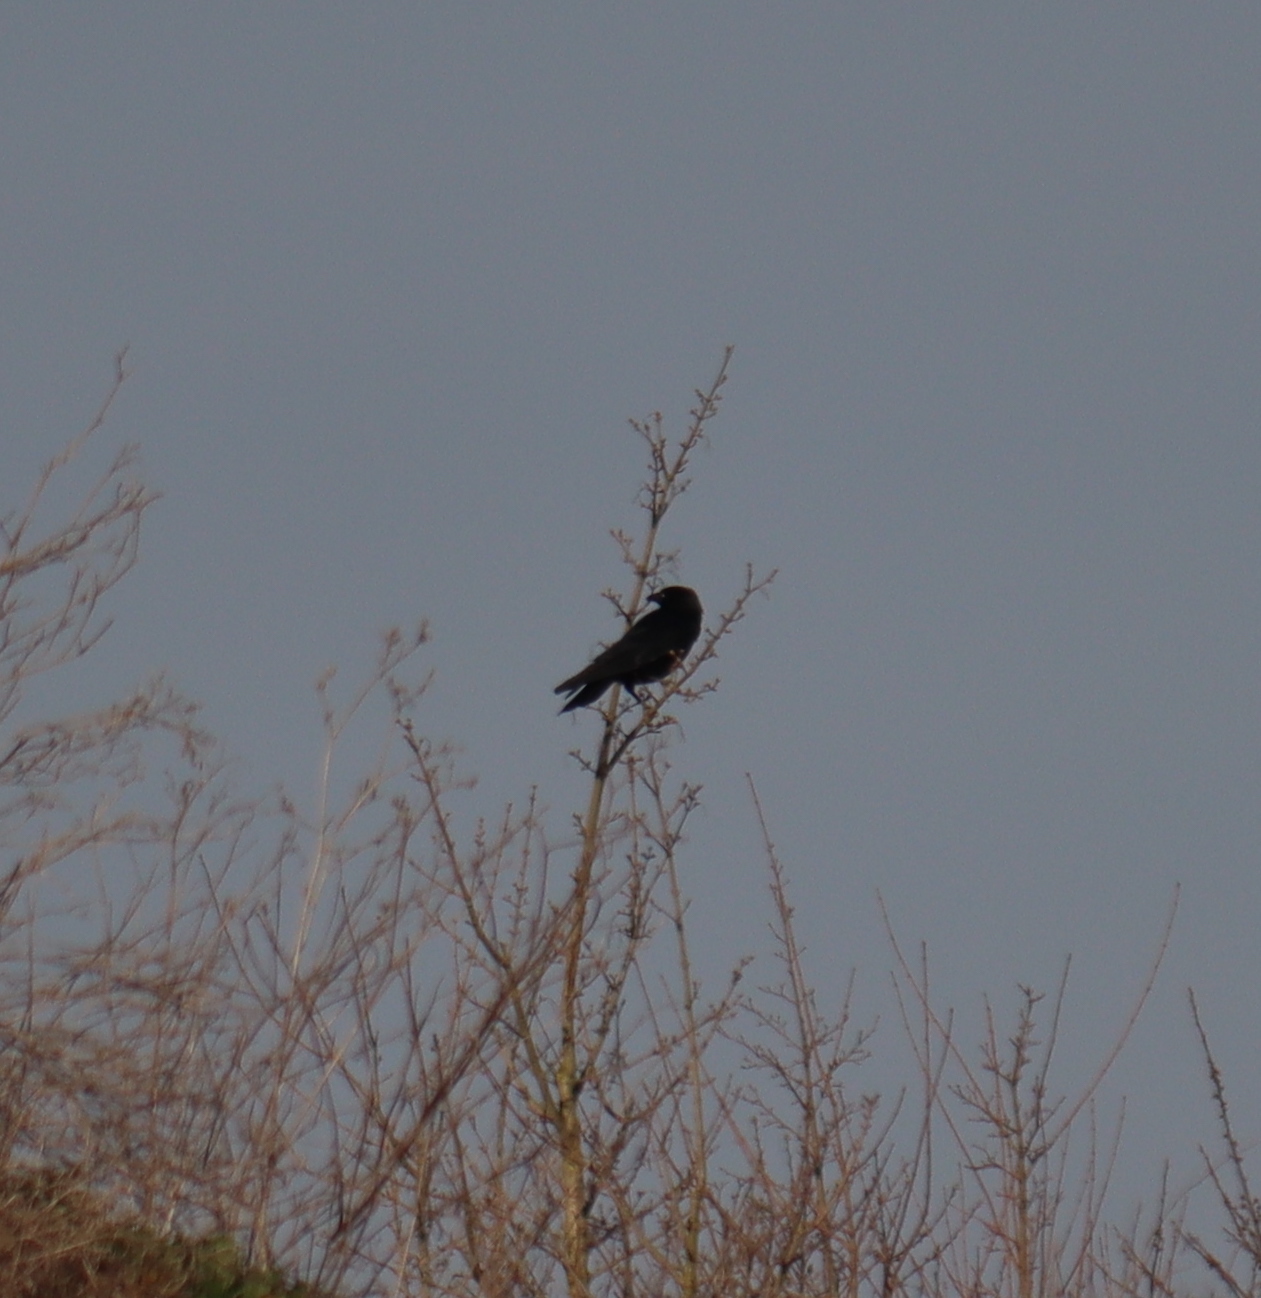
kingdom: Animalia
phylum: Chordata
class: Aves
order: Passeriformes
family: Corvidae
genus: Corvus
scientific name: Corvus corone
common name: Carrion crow
